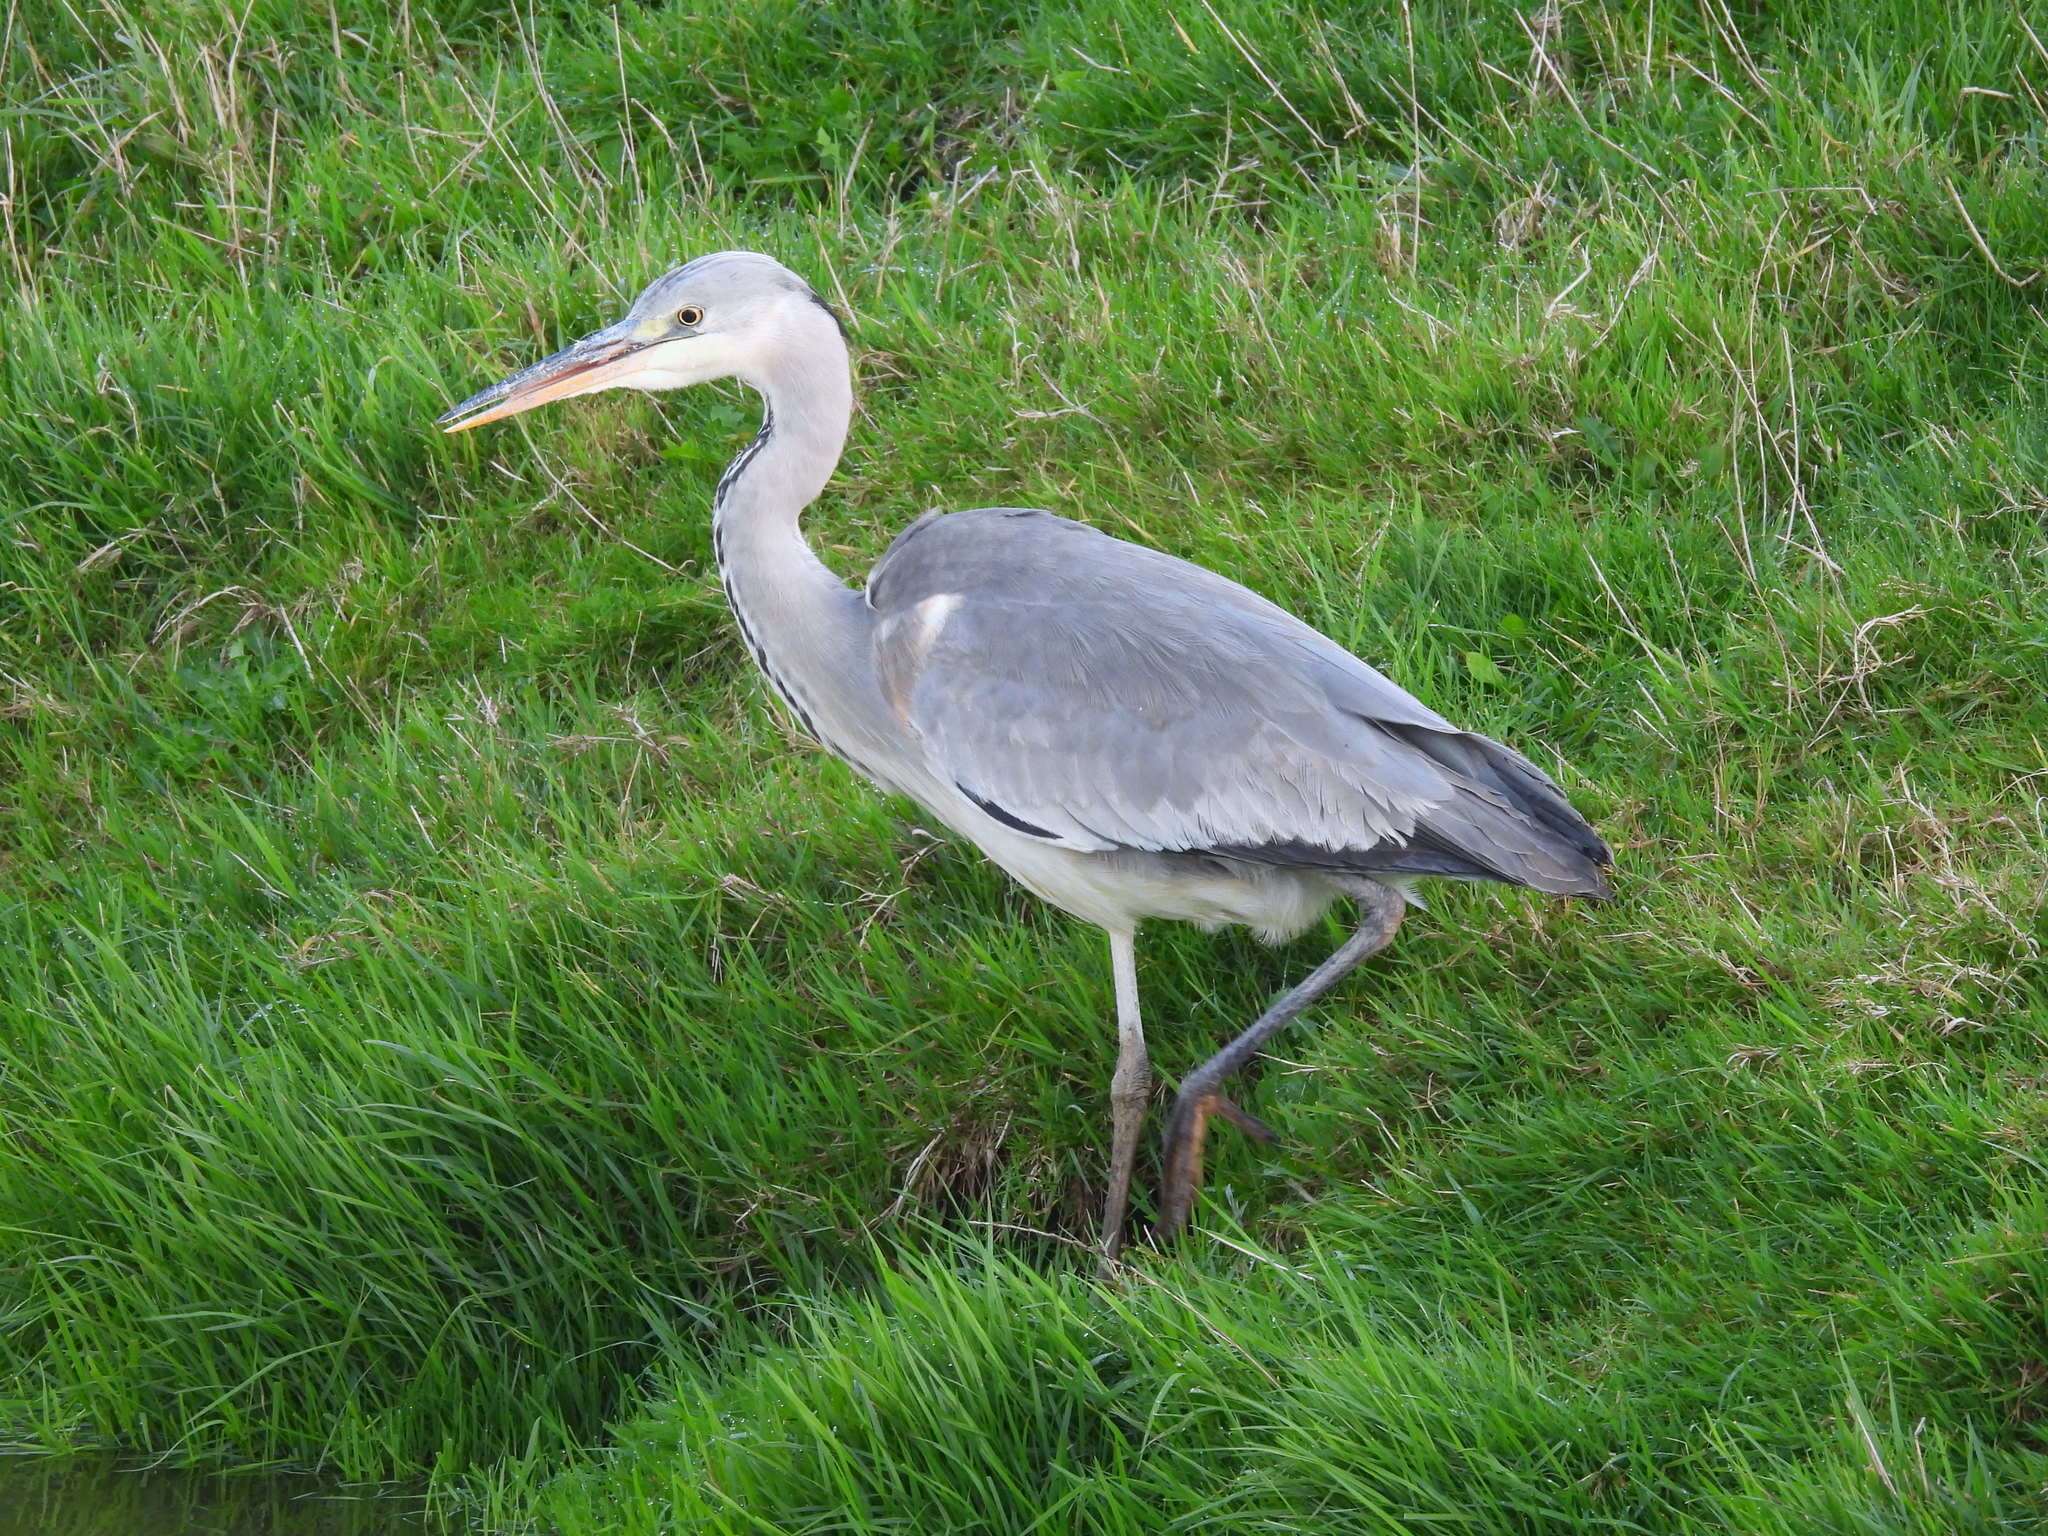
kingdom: Animalia
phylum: Chordata
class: Aves
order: Pelecaniformes
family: Ardeidae
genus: Ardea
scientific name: Ardea cinerea
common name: Grey heron
